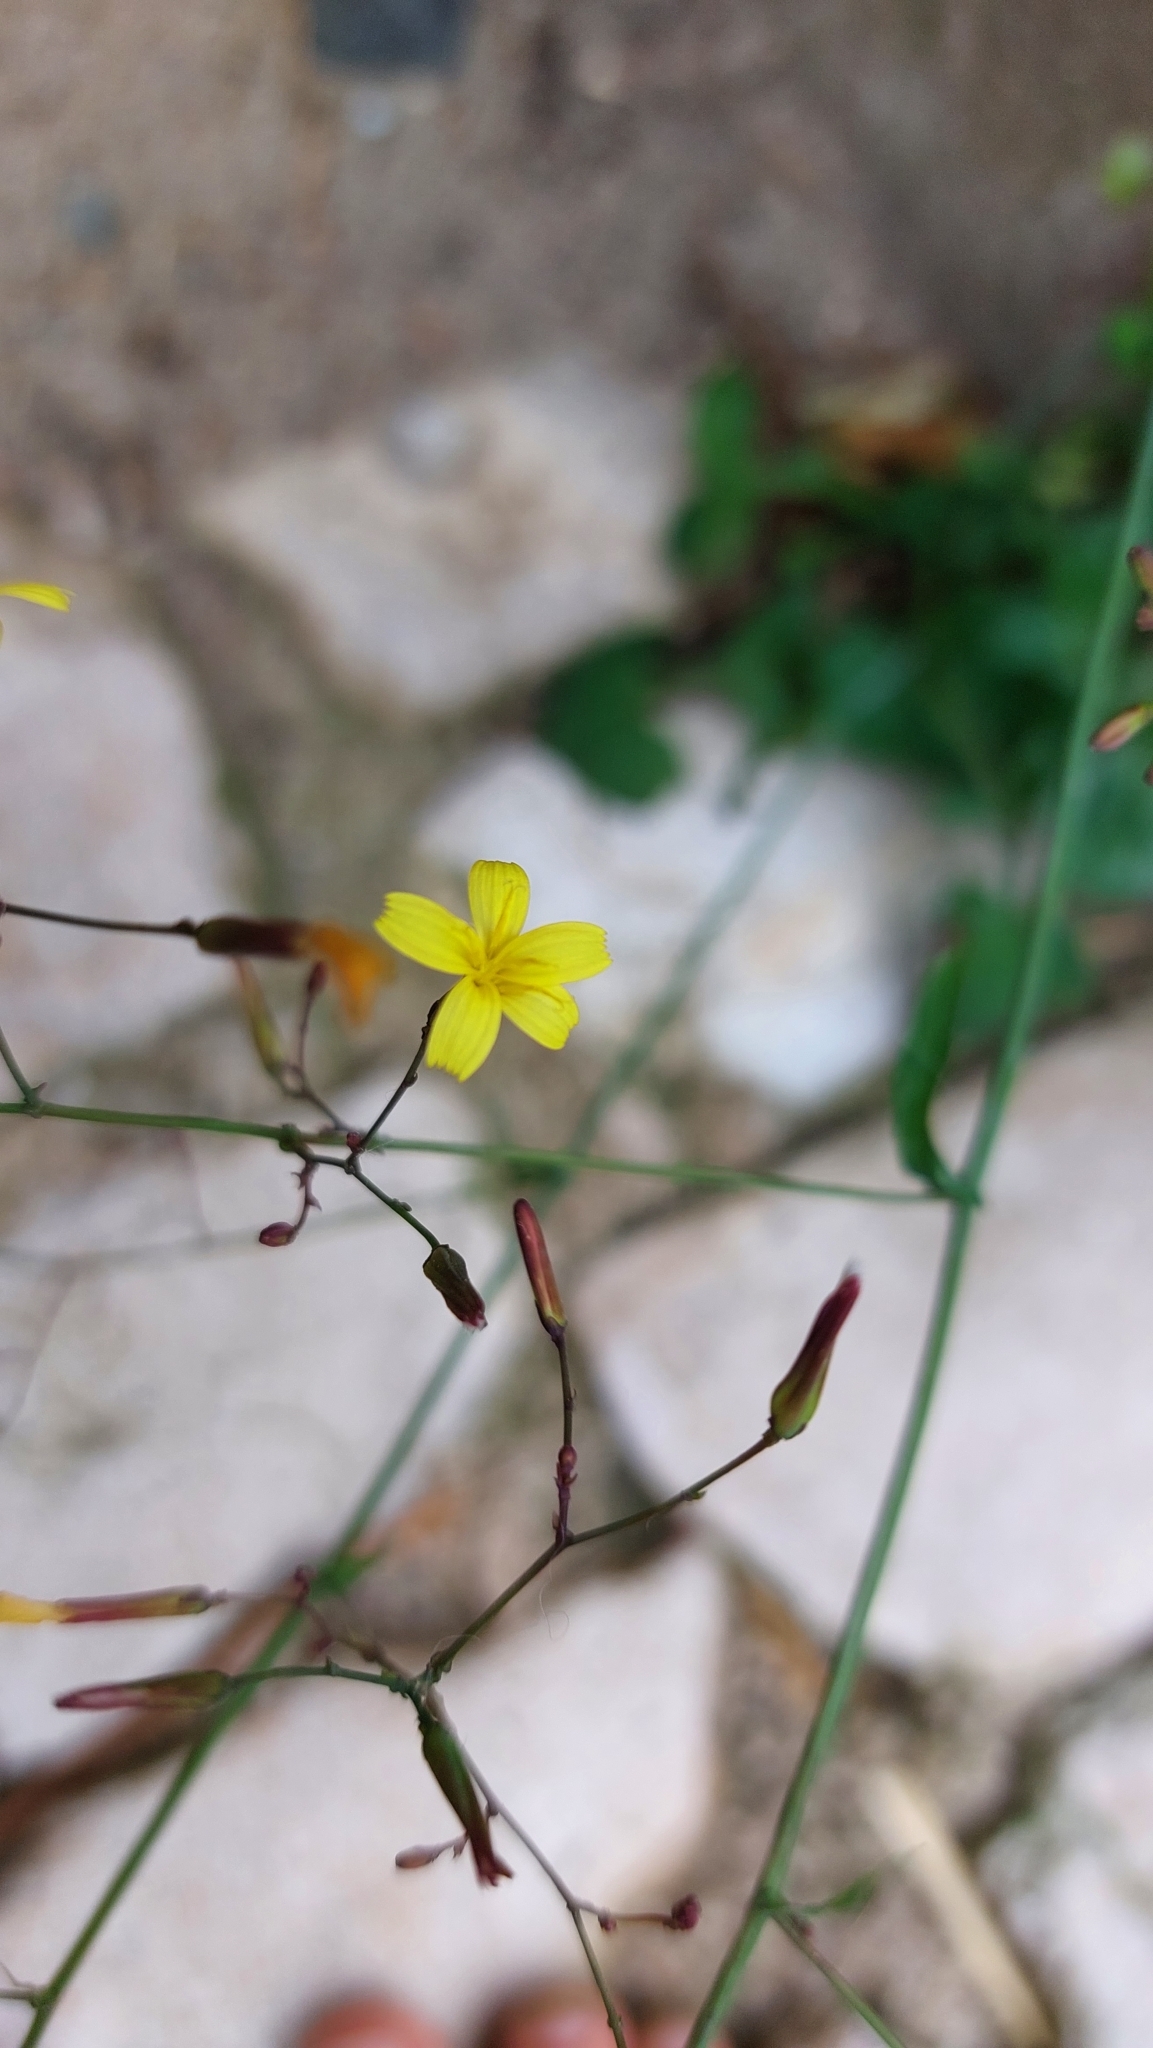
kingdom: Plantae
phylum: Tracheophyta
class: Magnoliopsida
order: Asterales
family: Asteraceae
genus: Mycelis
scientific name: Mycelis muralis
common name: Wall lettuce
